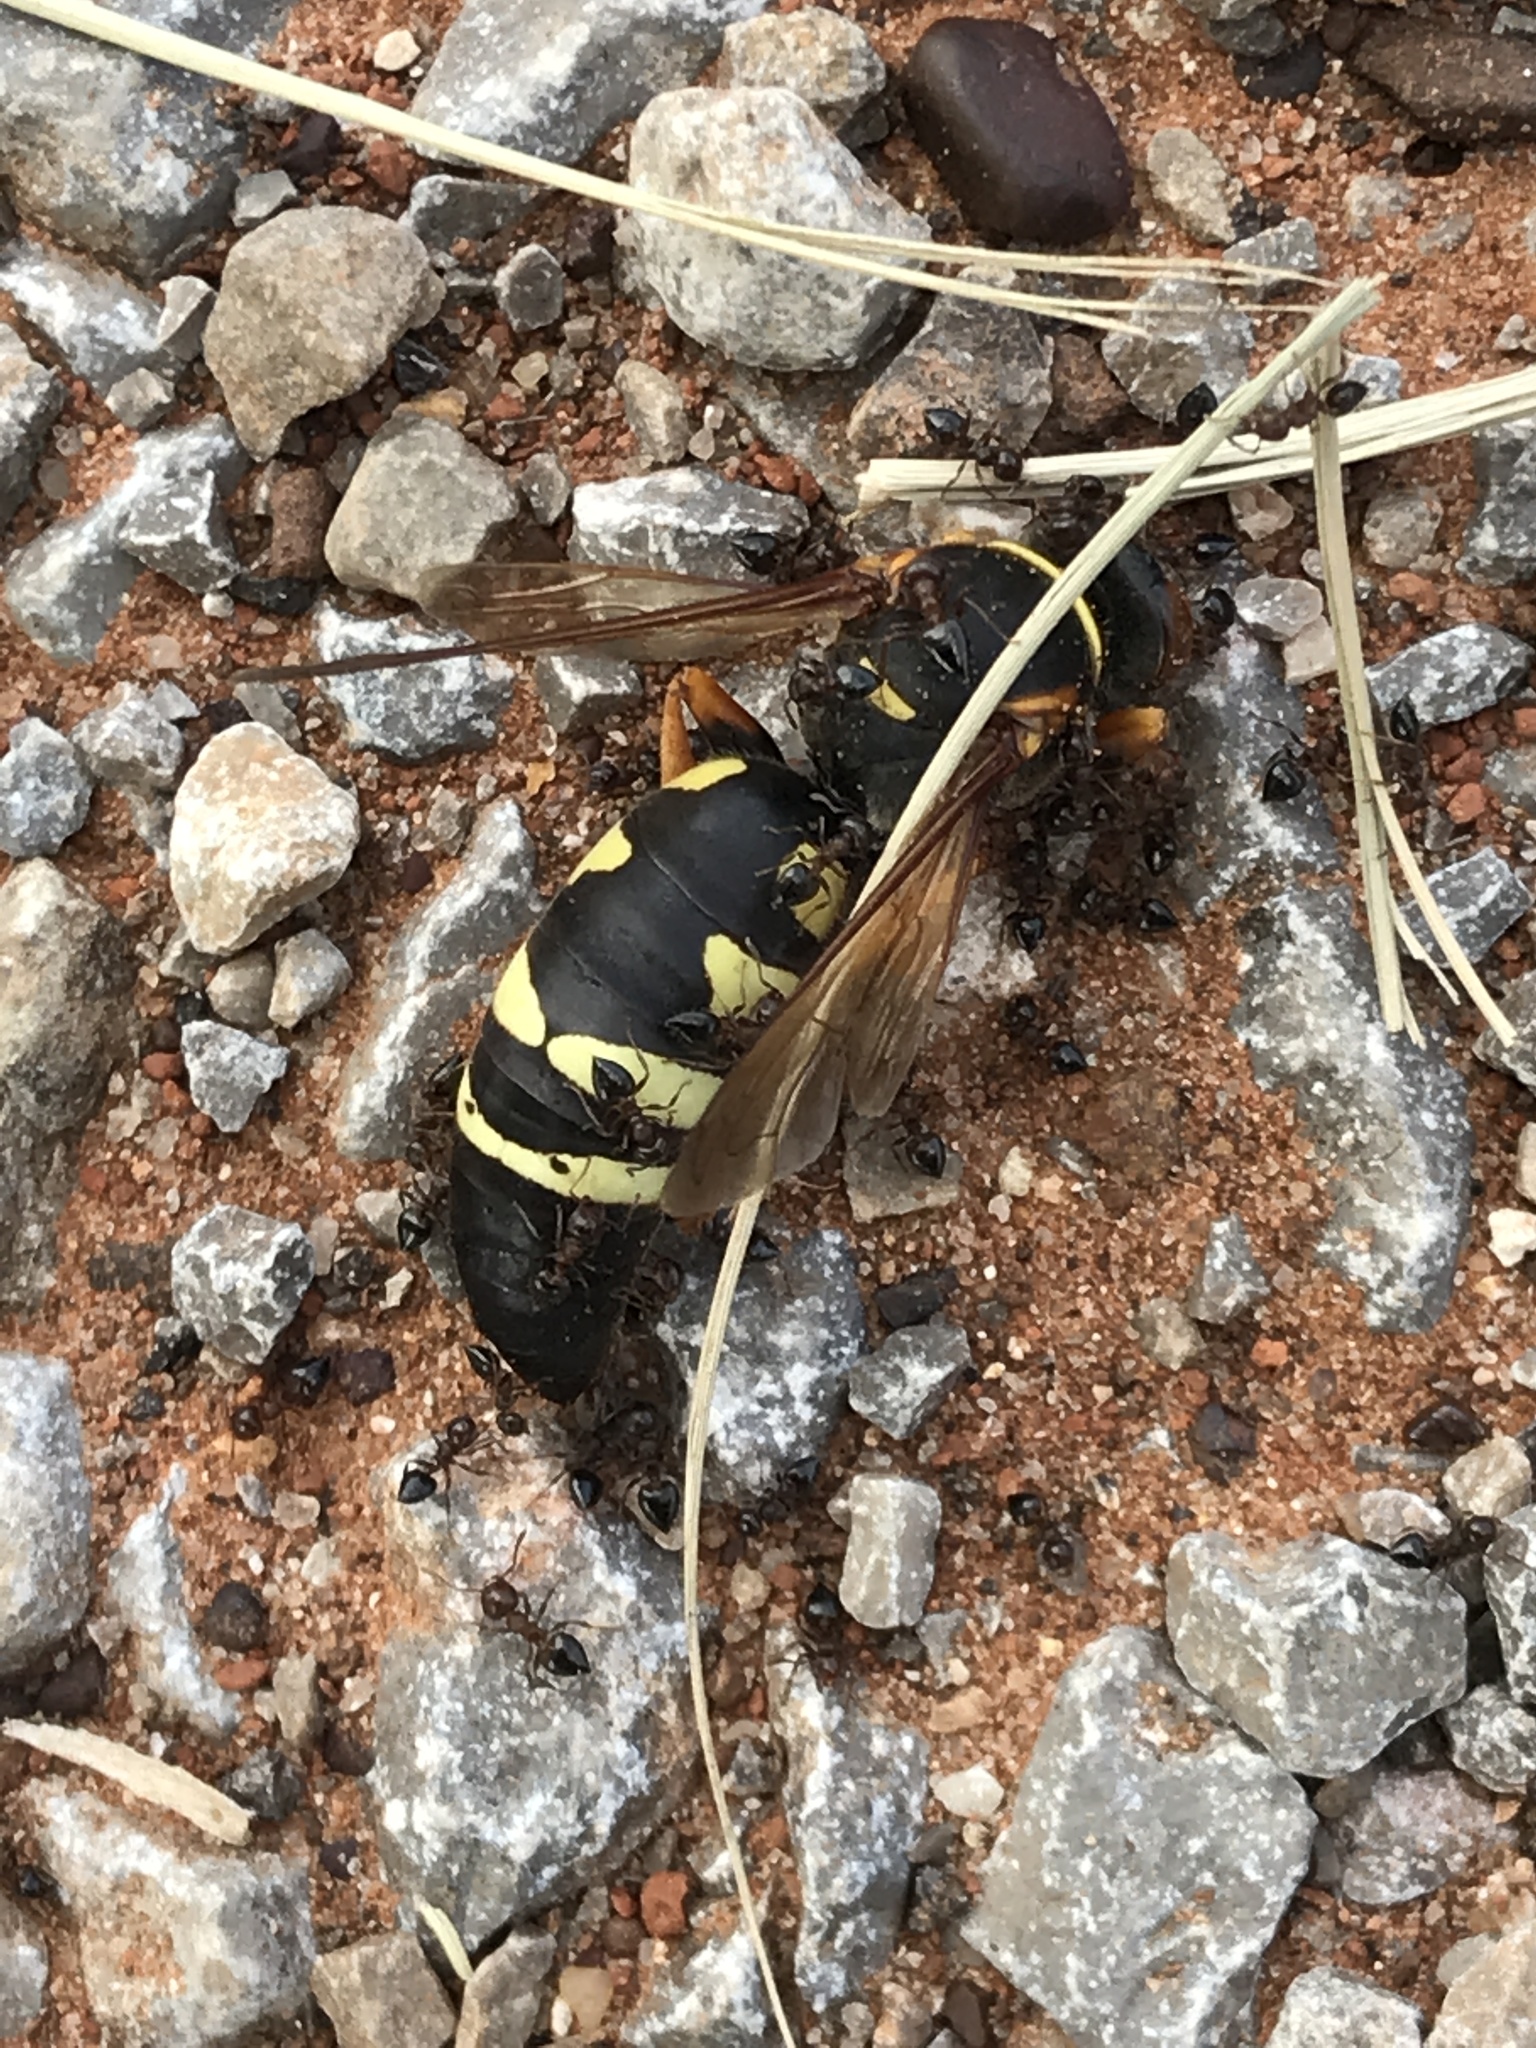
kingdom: Animalia
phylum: Arthropoda
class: Insecta
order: Hymenoptera
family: Crabronidae
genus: Stizus
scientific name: Stizus
